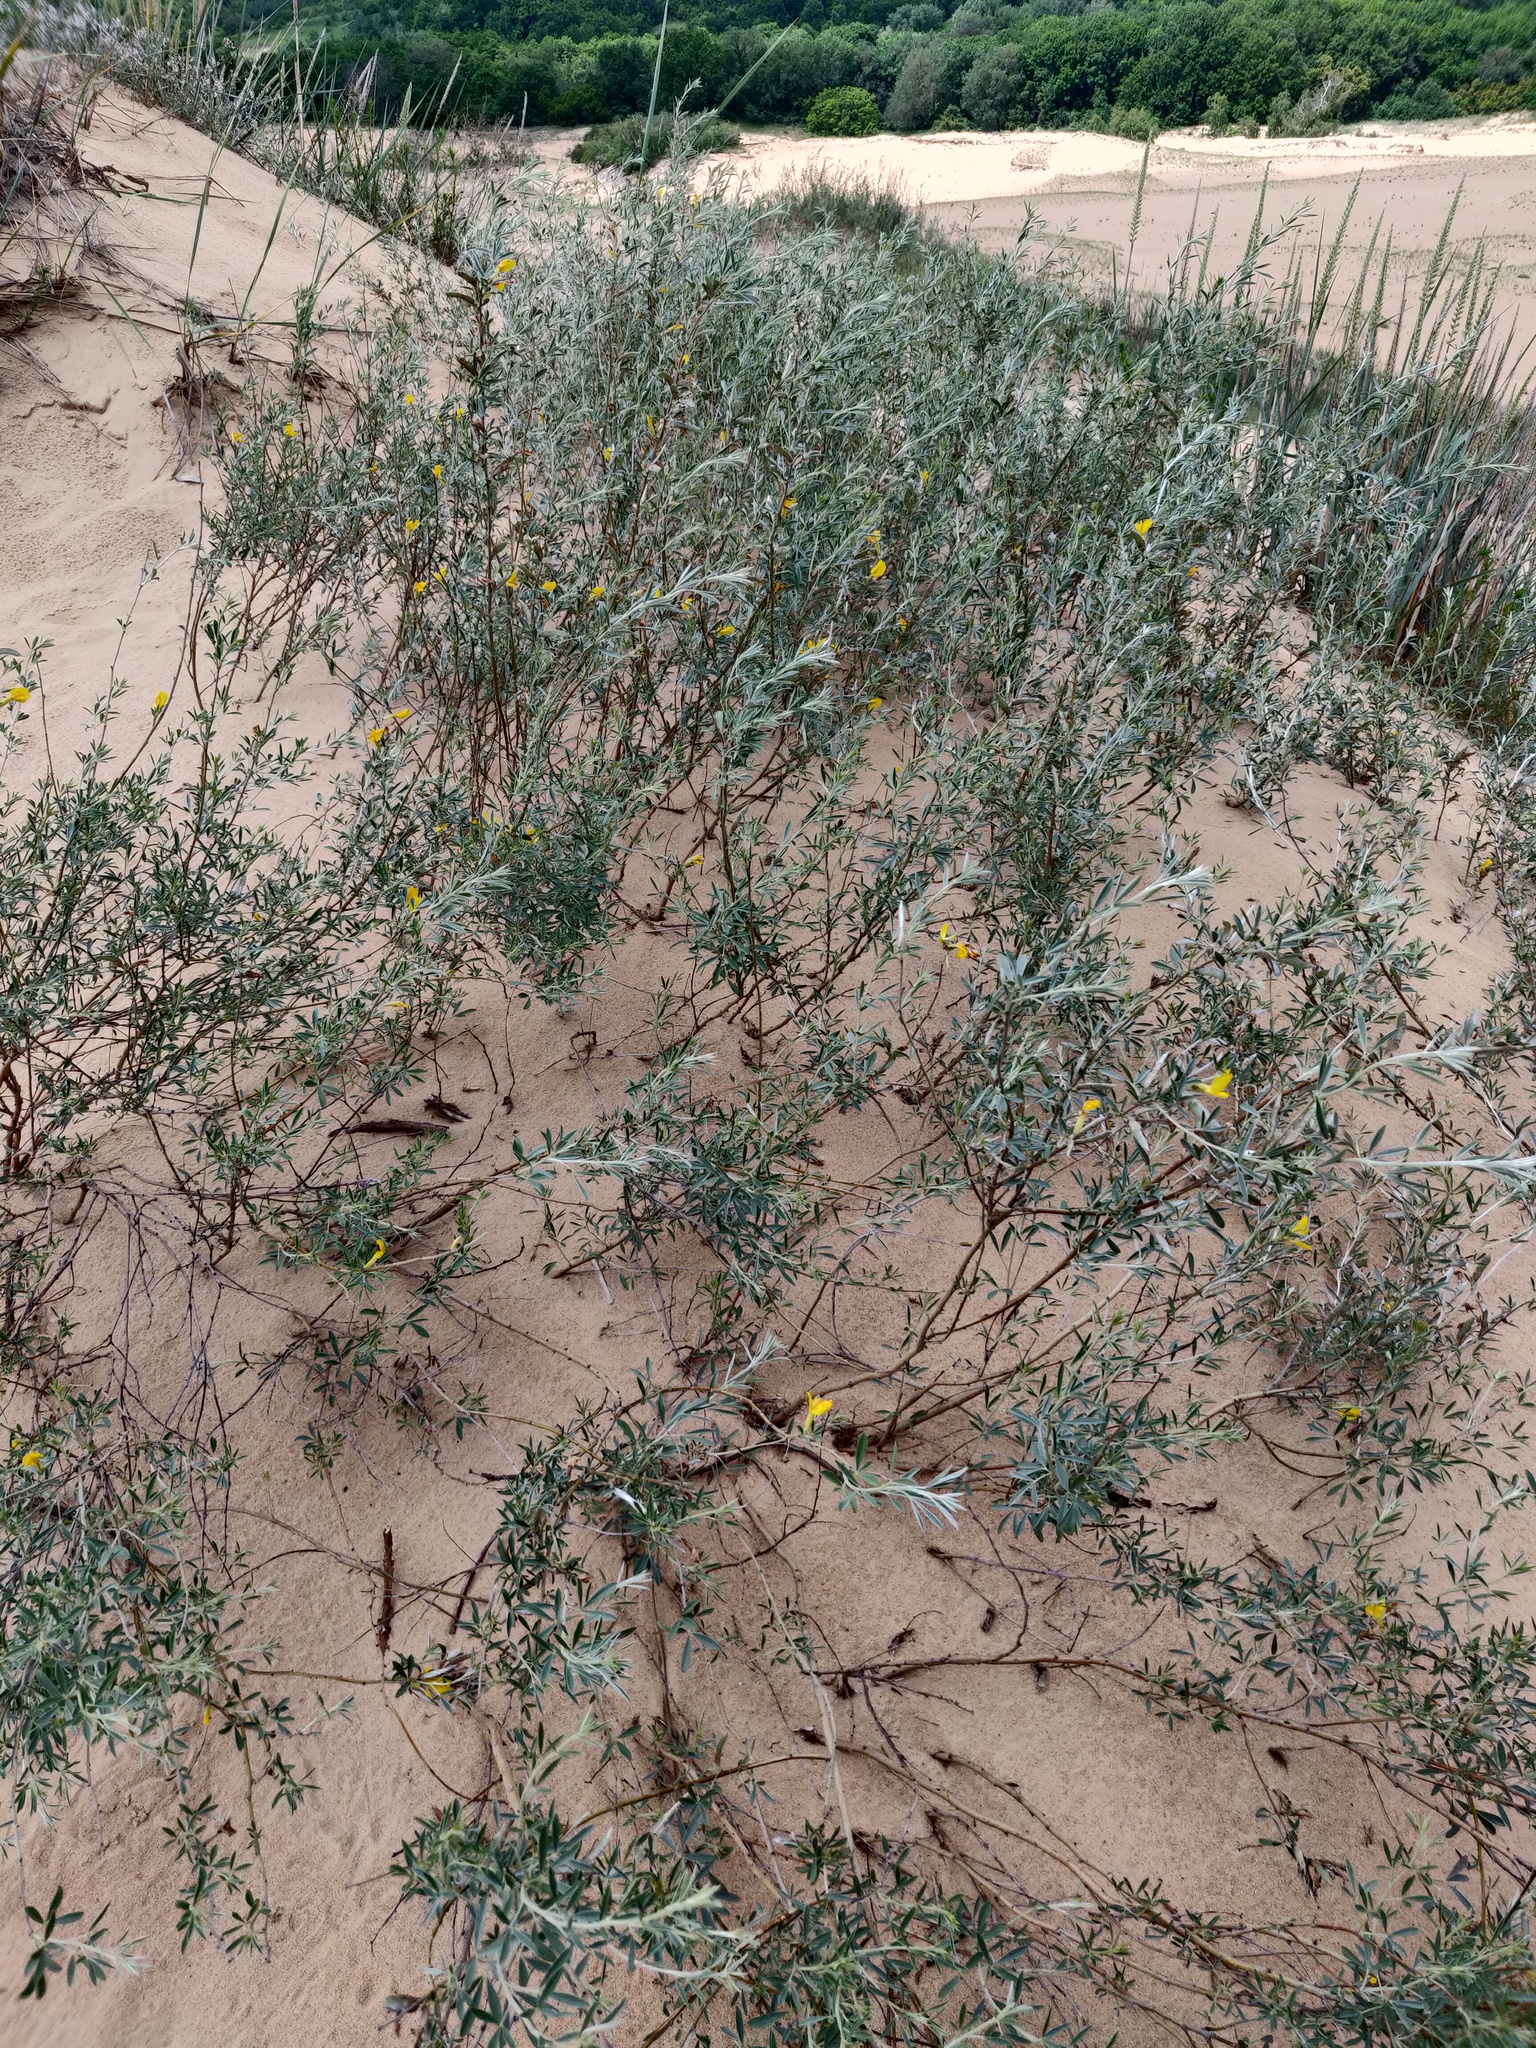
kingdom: Plantae
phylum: Tracheophyta
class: Magnoliopsida
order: Fabales
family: Fabaceae
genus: Chamaecytisus
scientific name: Chamaecytisus ruthenicus
